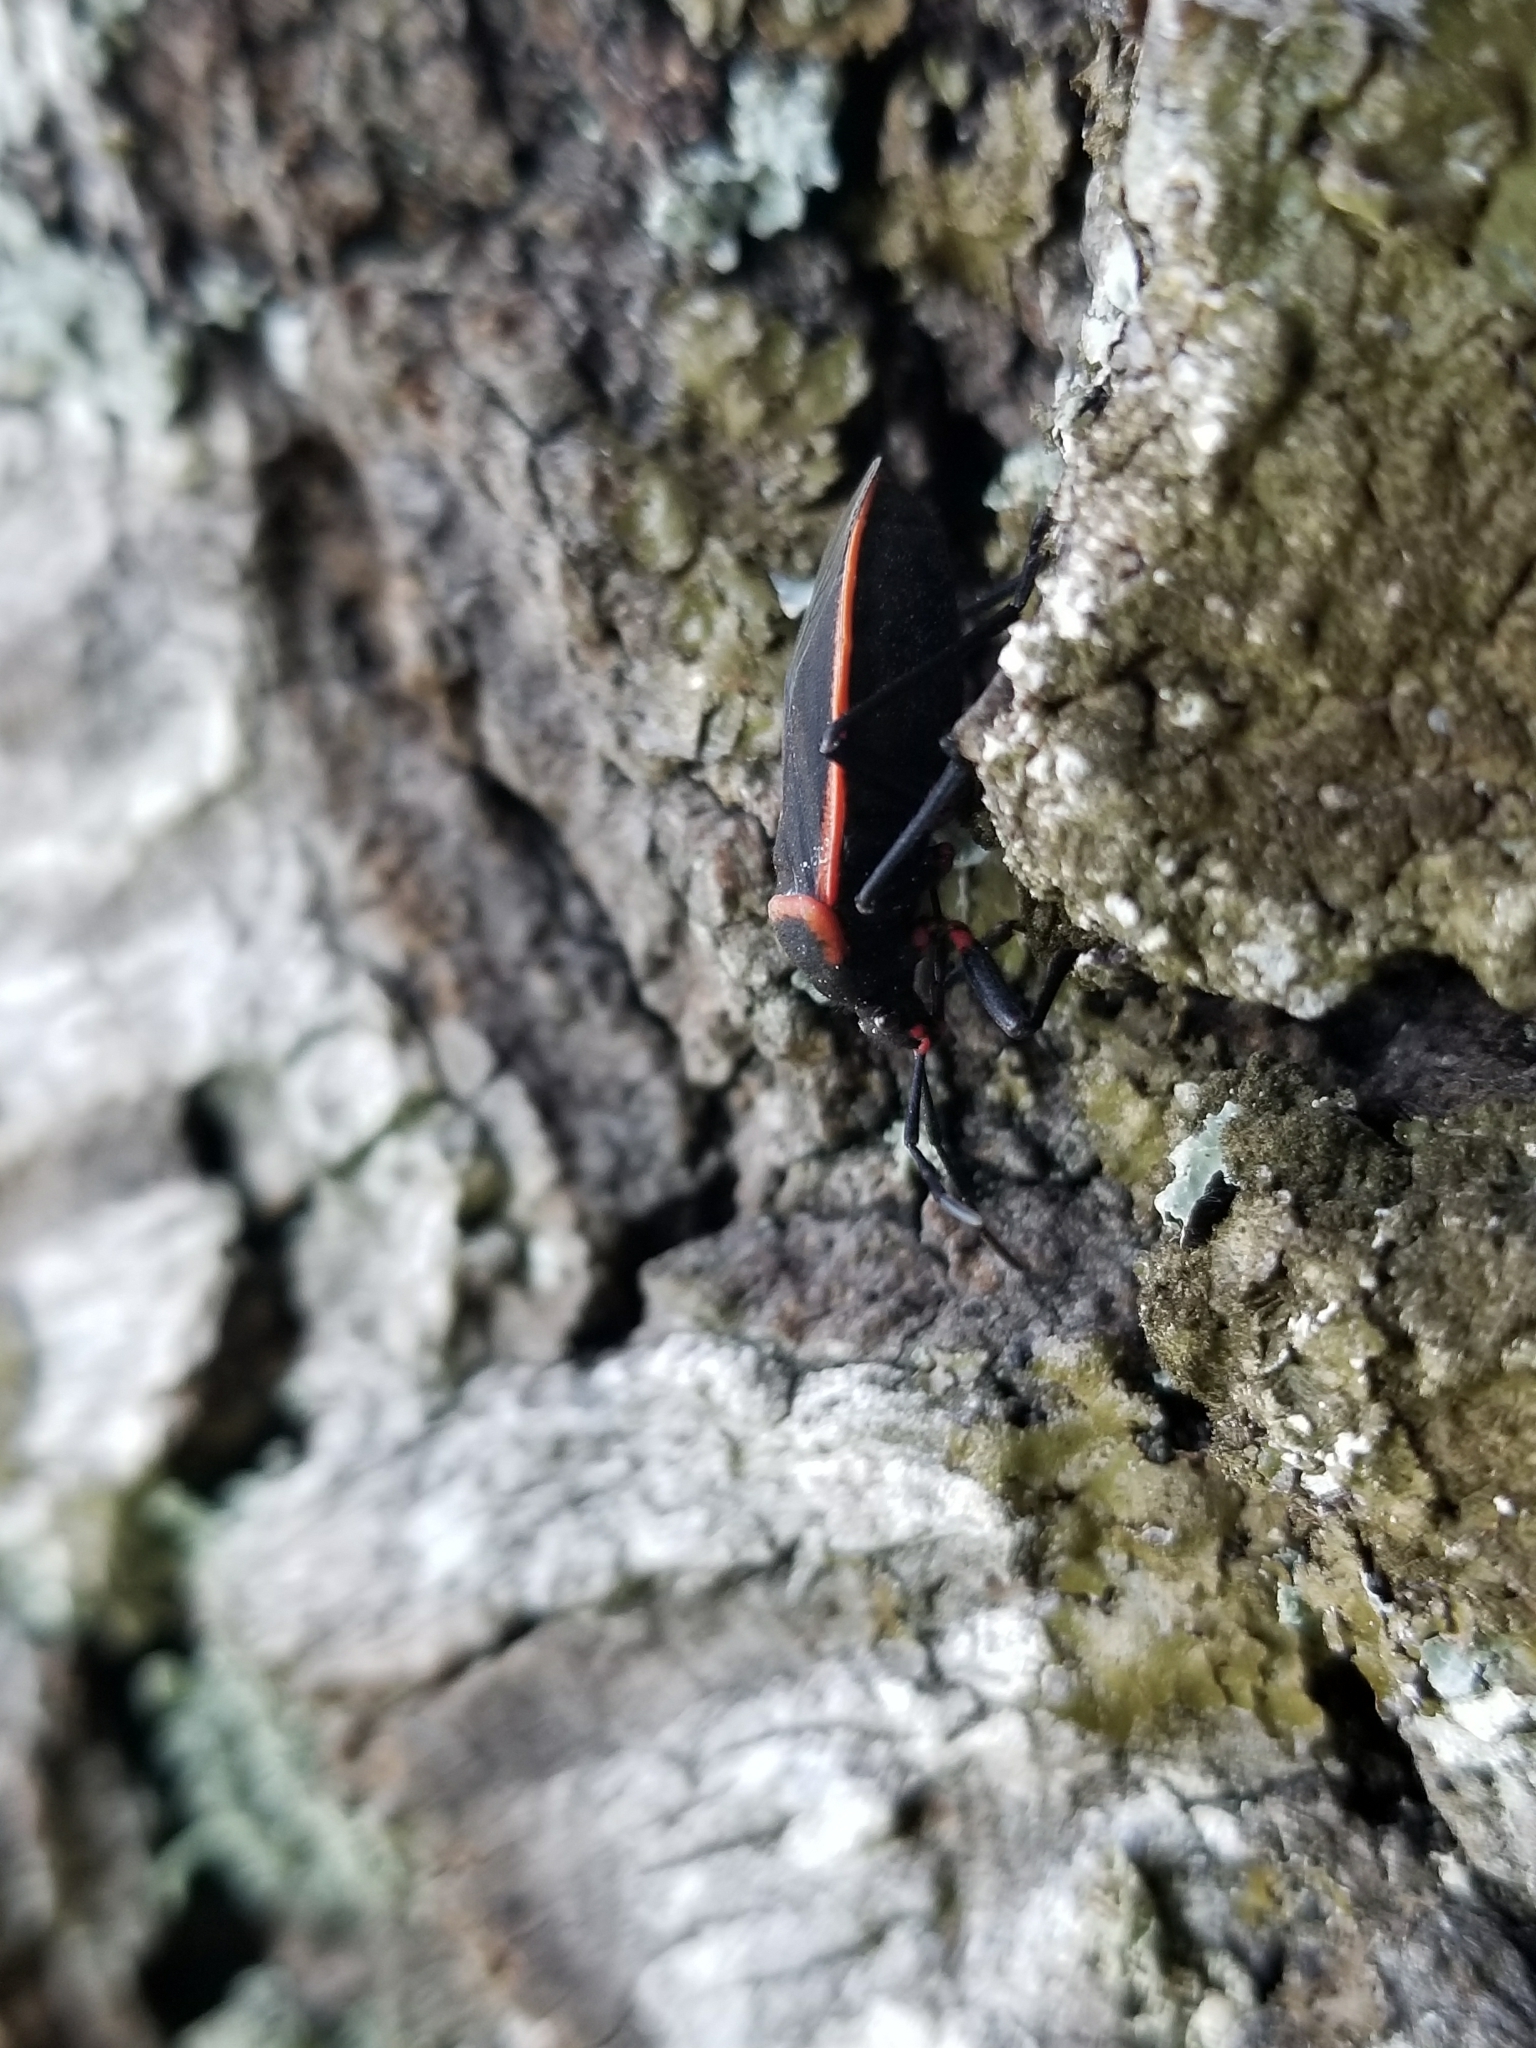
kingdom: Animalia
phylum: Arthropoda
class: Insecta
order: Hemiptera
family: Largidae
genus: Largus
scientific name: Largus cinctus
